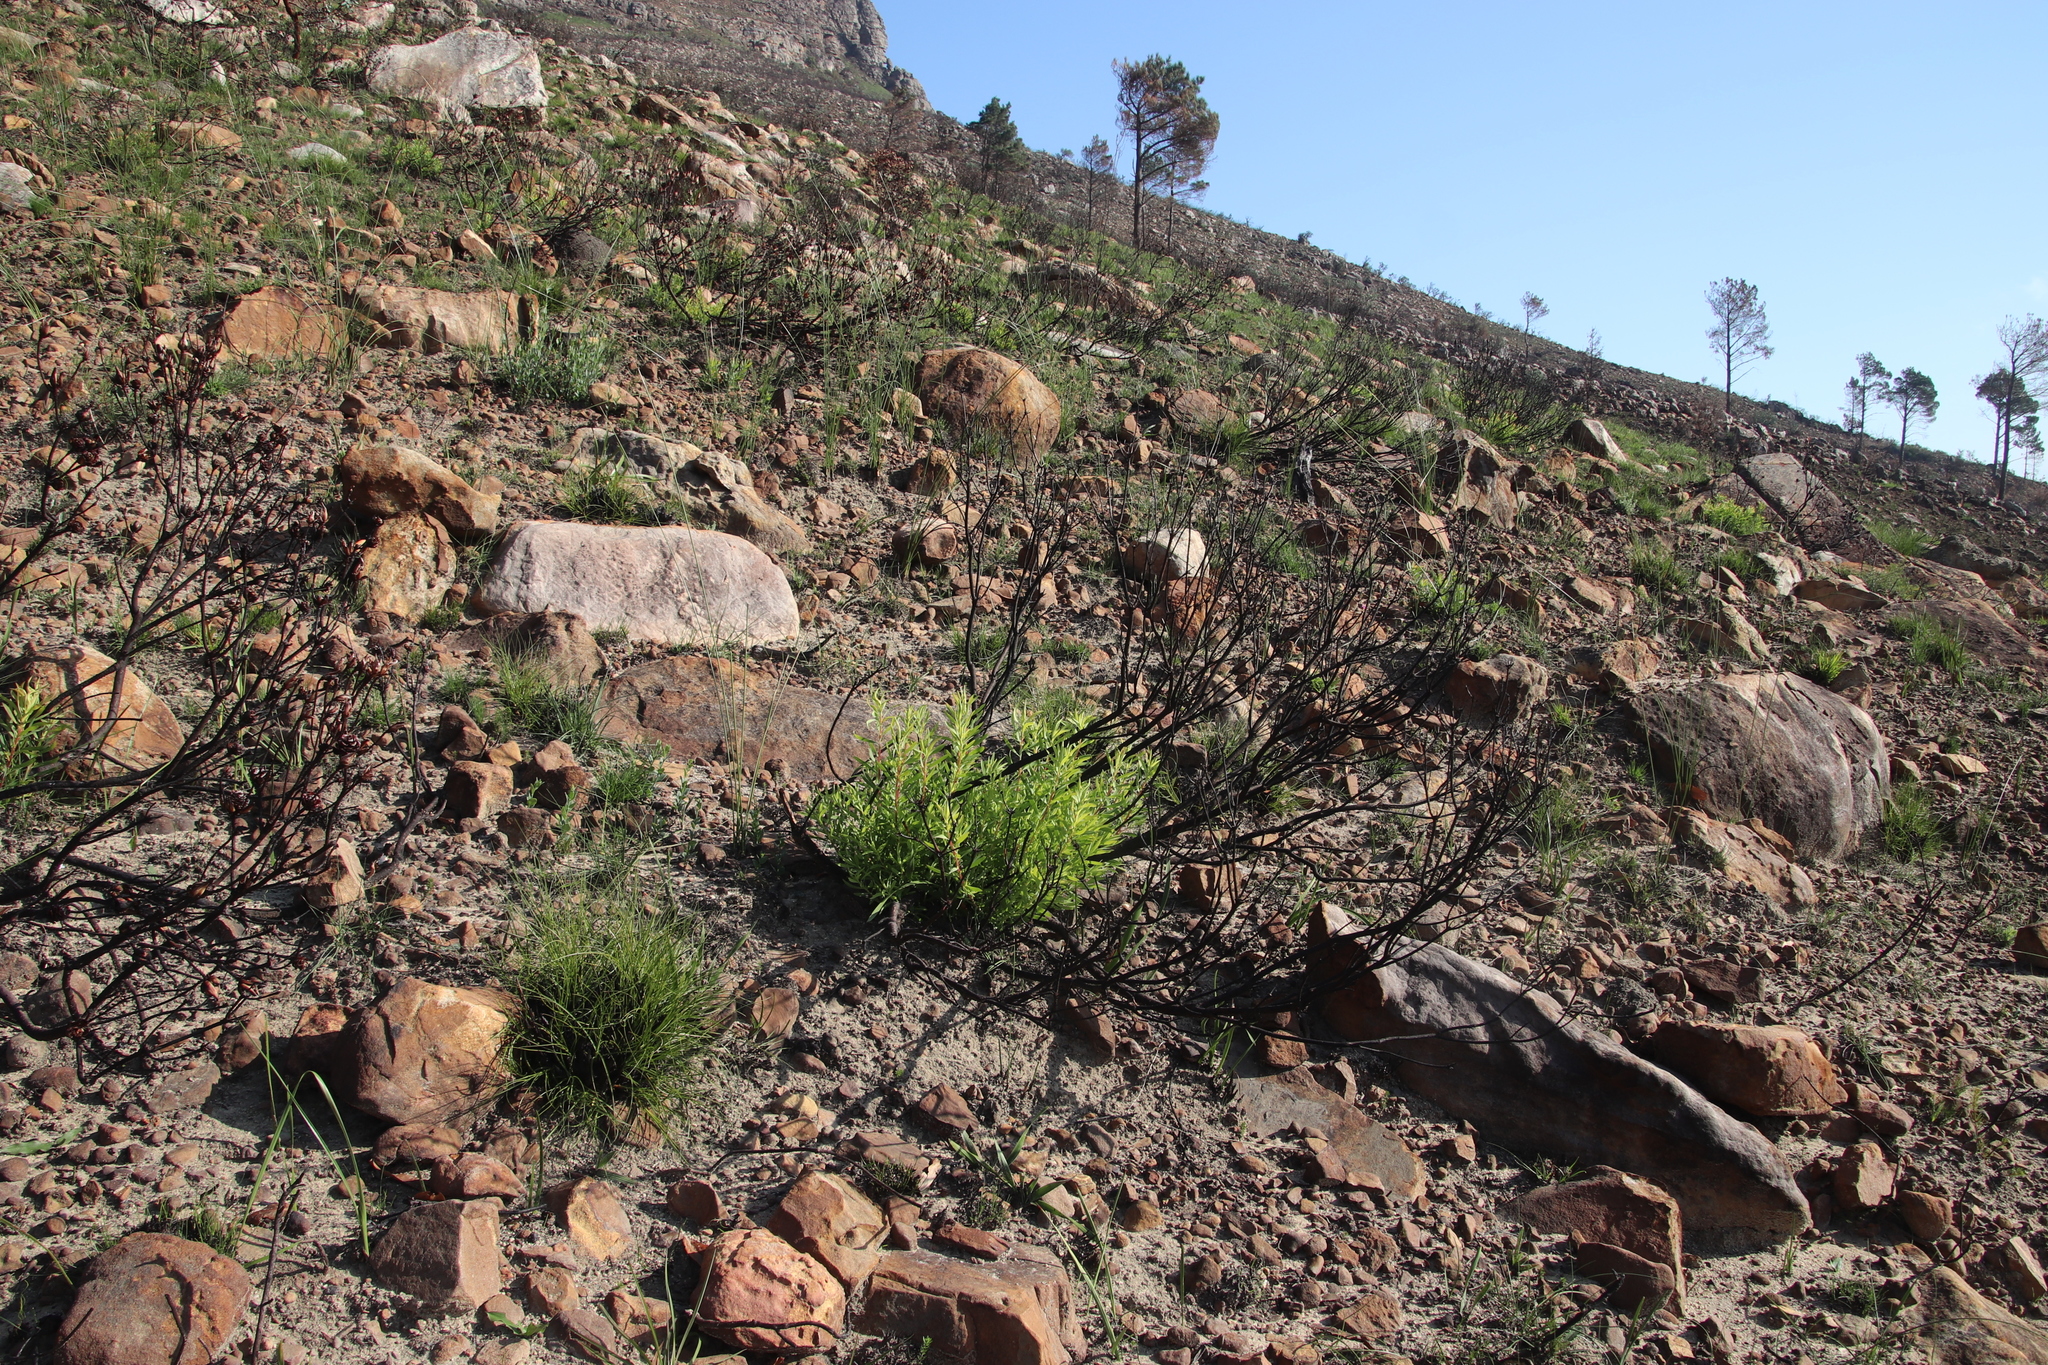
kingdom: Plantae
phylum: Tracheophyta
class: Magnoliopsida
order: Proteales
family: Proteaceae
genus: Leucadendron
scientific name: Leucadendron salignum
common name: Common sunshine conebush
